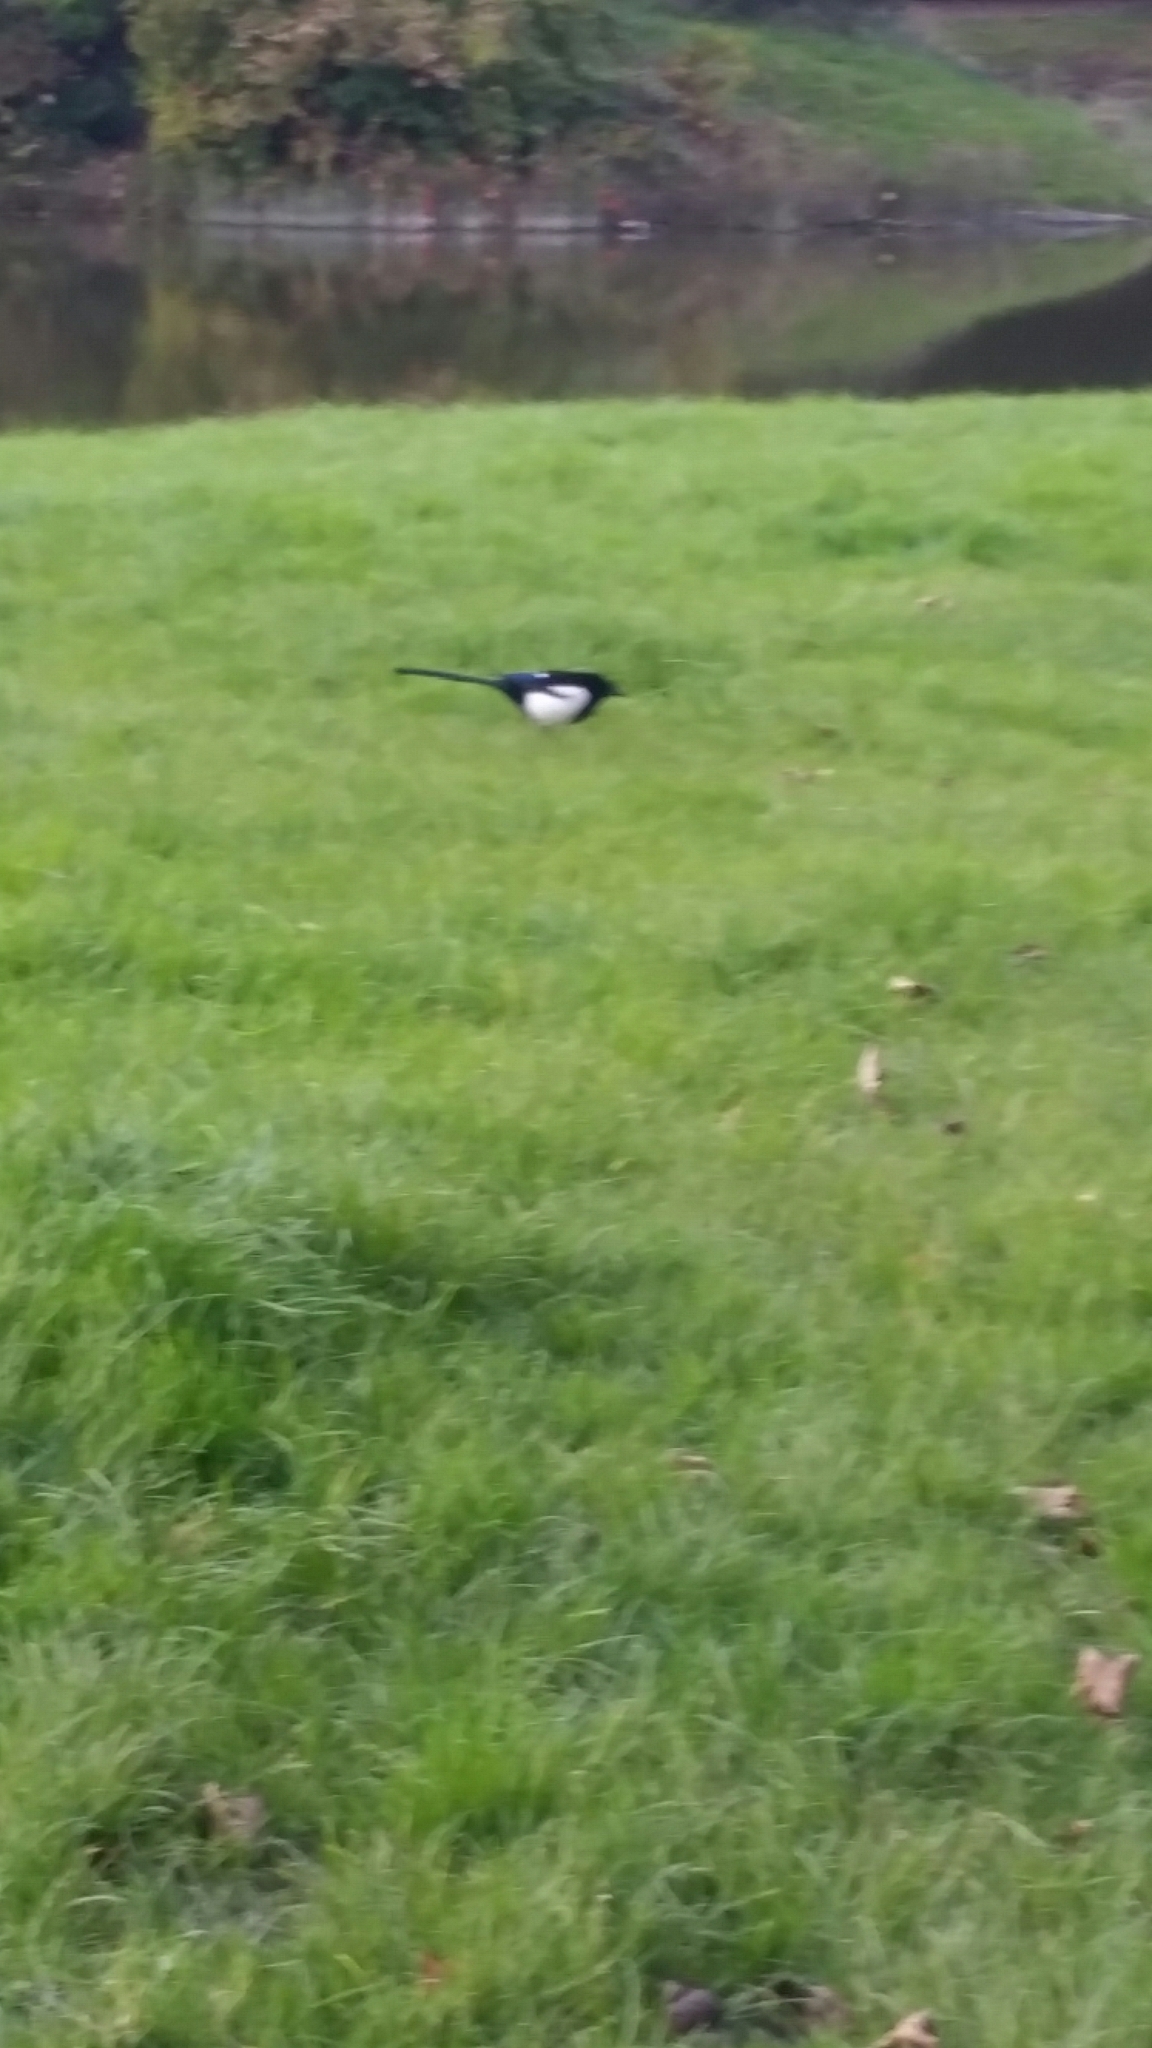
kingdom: Animalia
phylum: Chordata
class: Aves
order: Passeriformes
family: Corvidae
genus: Pica
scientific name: Pica pica
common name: Eurasian magpie
